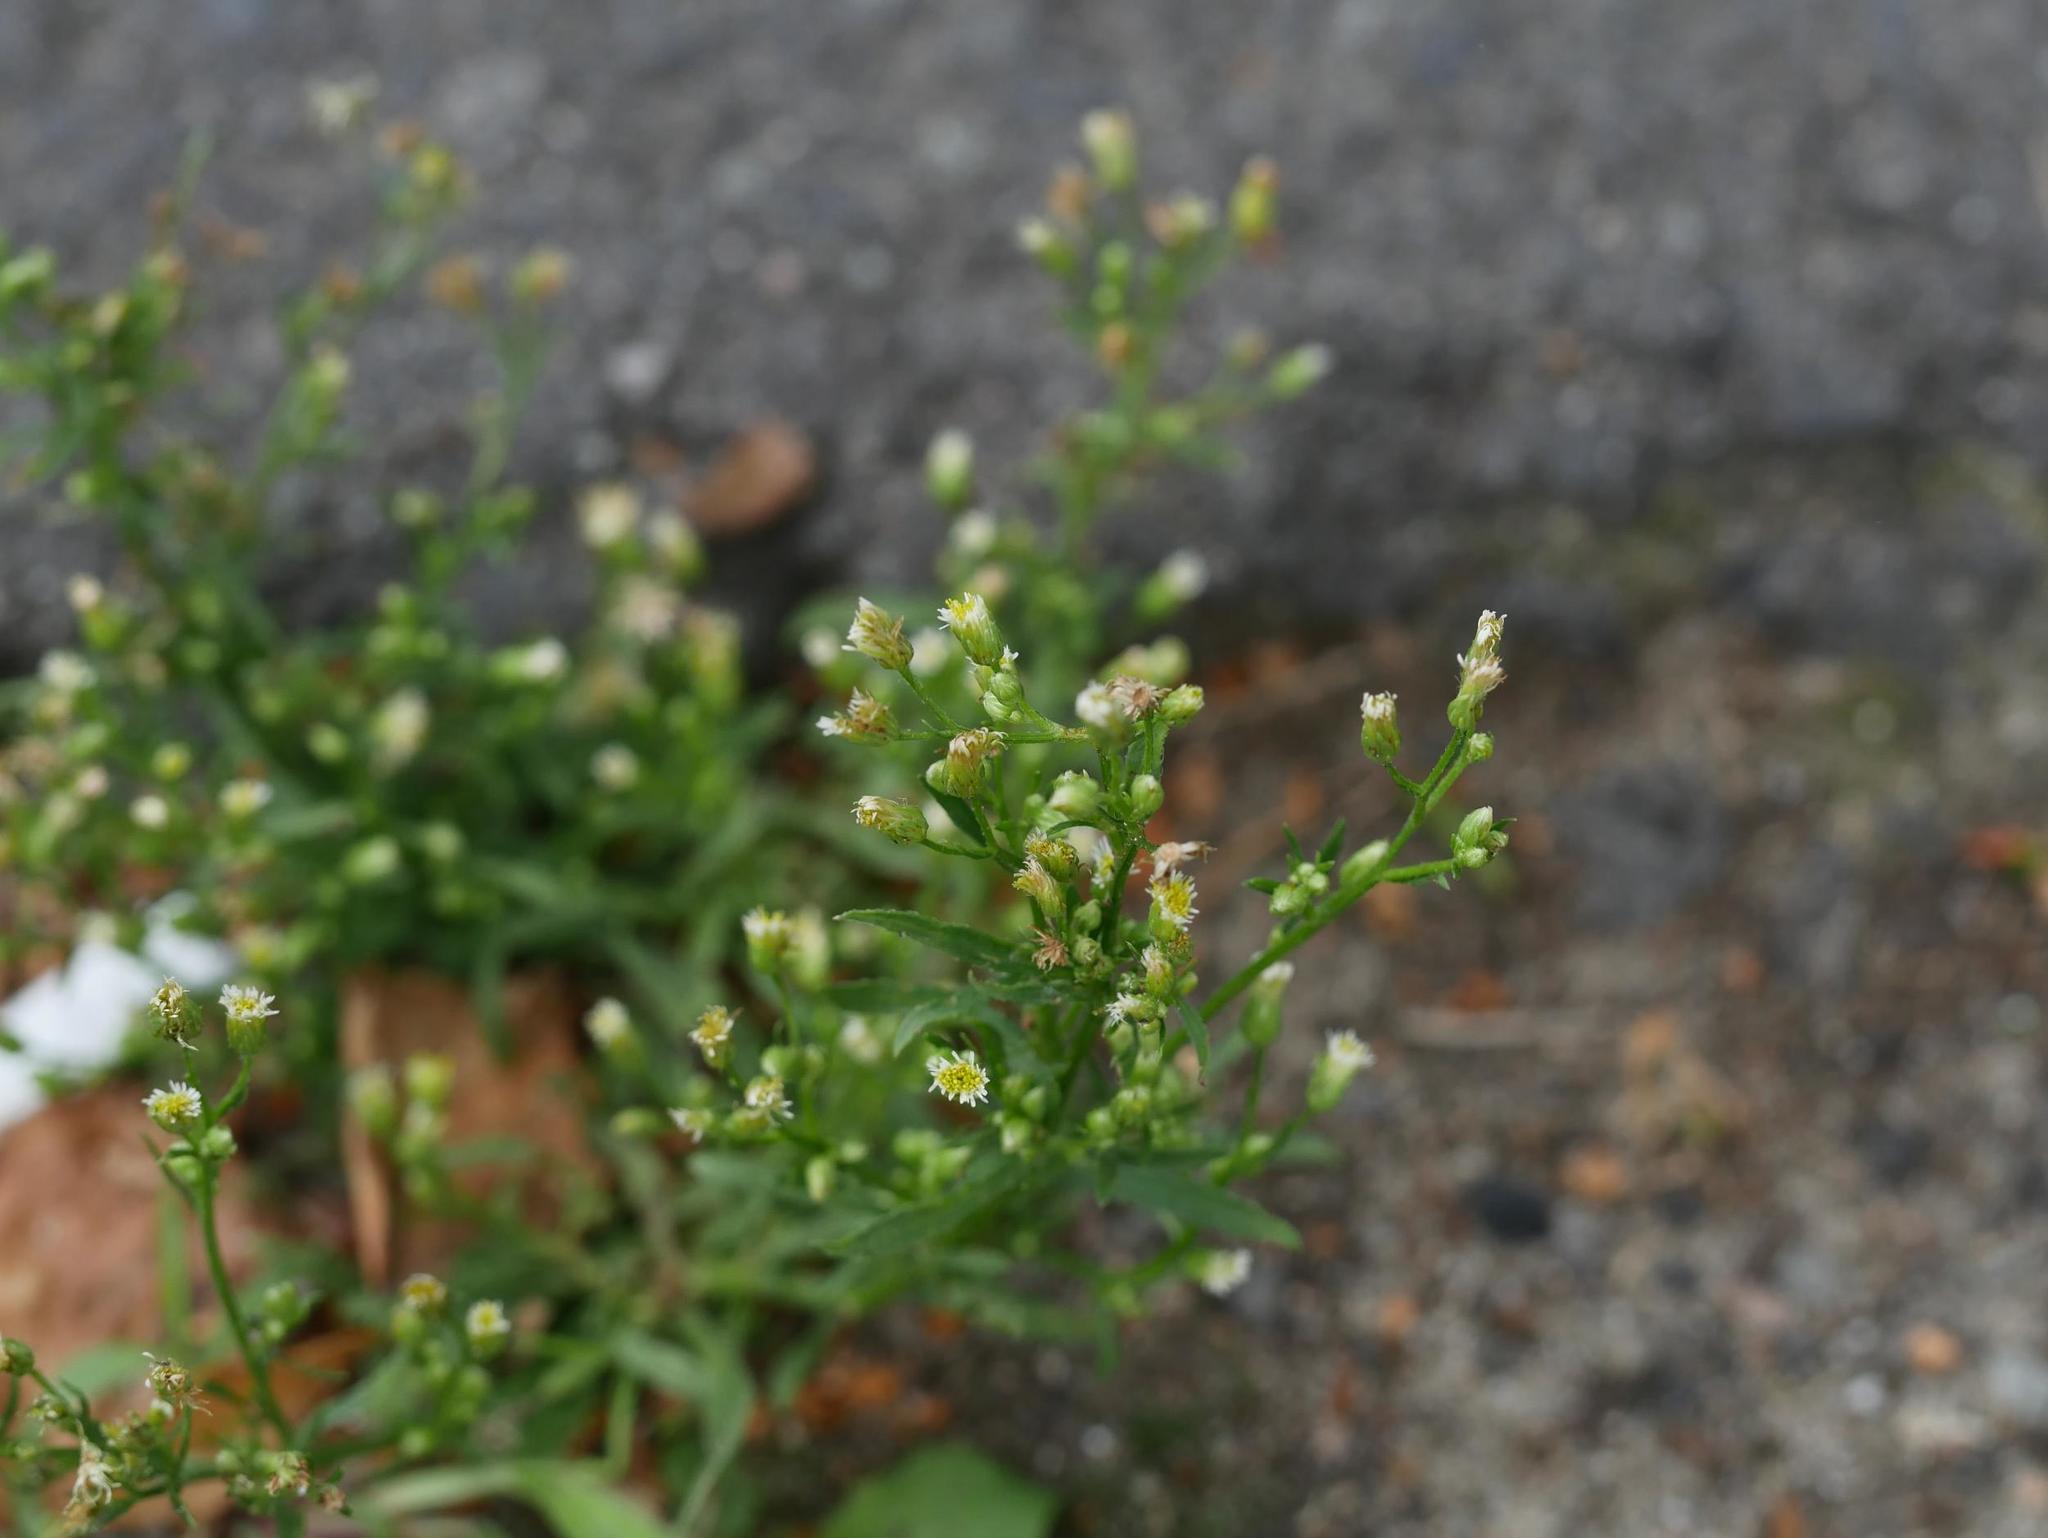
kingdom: Plantae
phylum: Tracheophyta
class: Magnoliopsida
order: Asterales
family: Asteraceae
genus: Erigeron
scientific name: Erigeron canadensis
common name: Canadian fleabane
